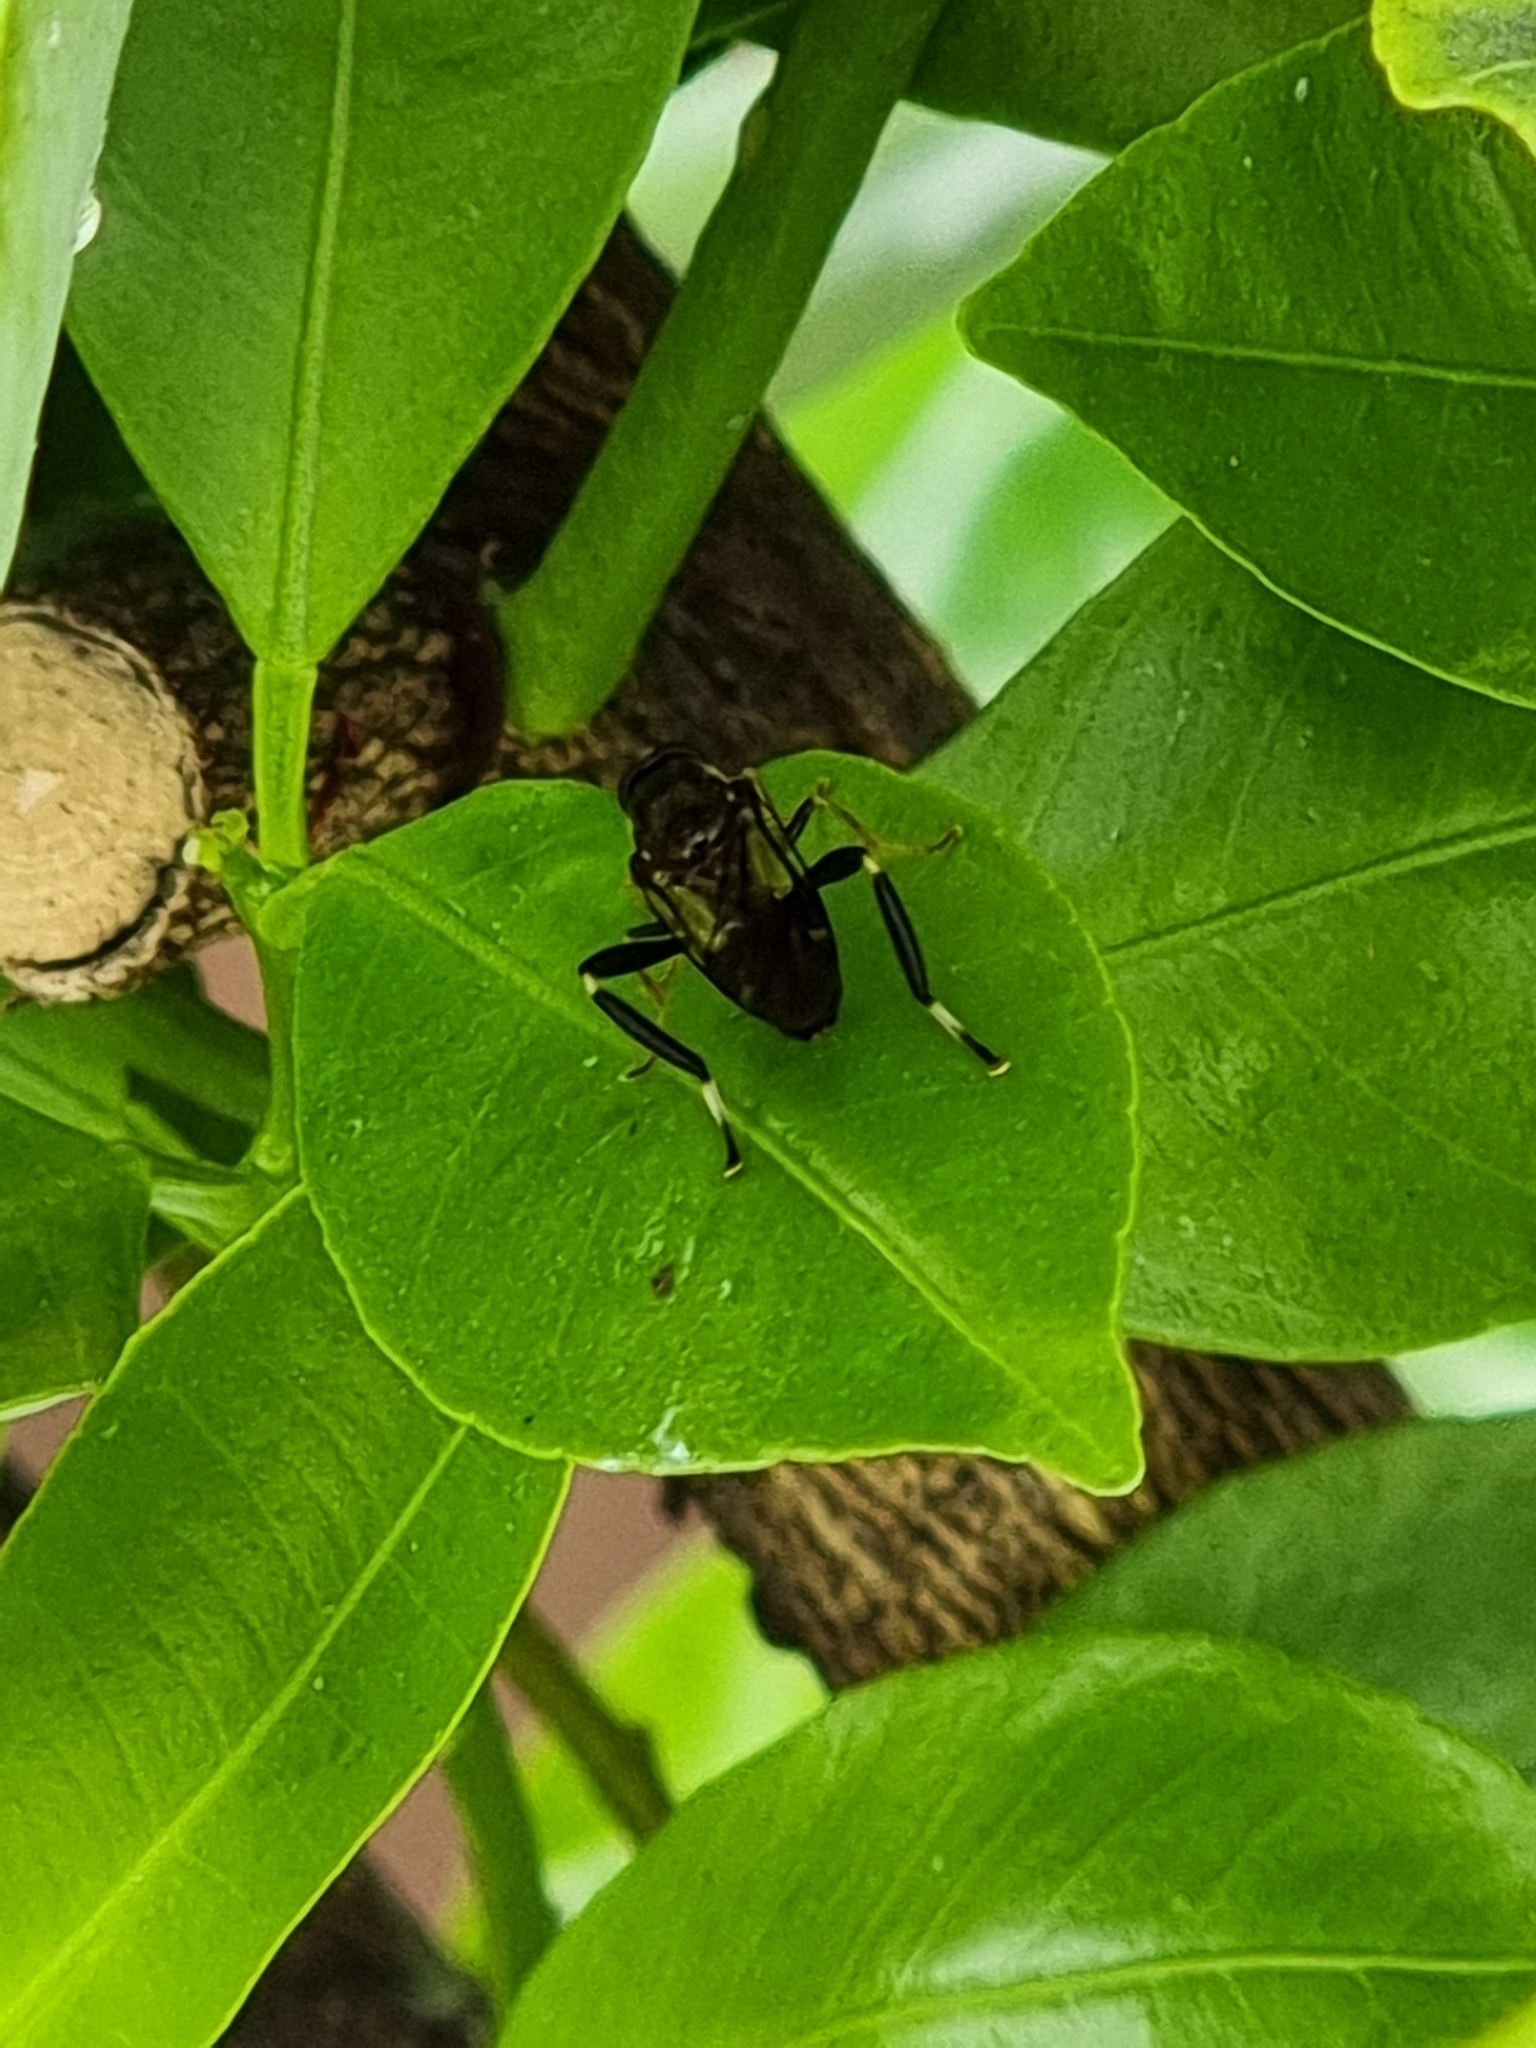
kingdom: Animalia
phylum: Arthropoda
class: Insecta
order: Diptera
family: Stratiomyidae
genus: Exaireta
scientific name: Exaireta spinigera
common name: Blue soldier fly
